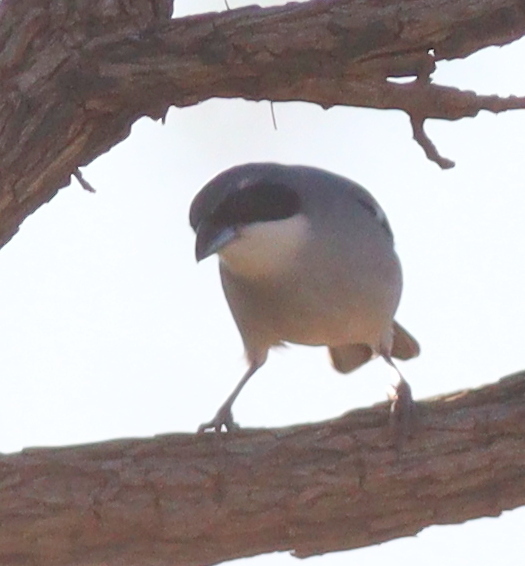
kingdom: Animalia
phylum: Chordata
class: Aves
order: Passeriformes
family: Thraupidae
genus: Neothraupis
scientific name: Neothraupis fasciata
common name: Shrike-like tanager
